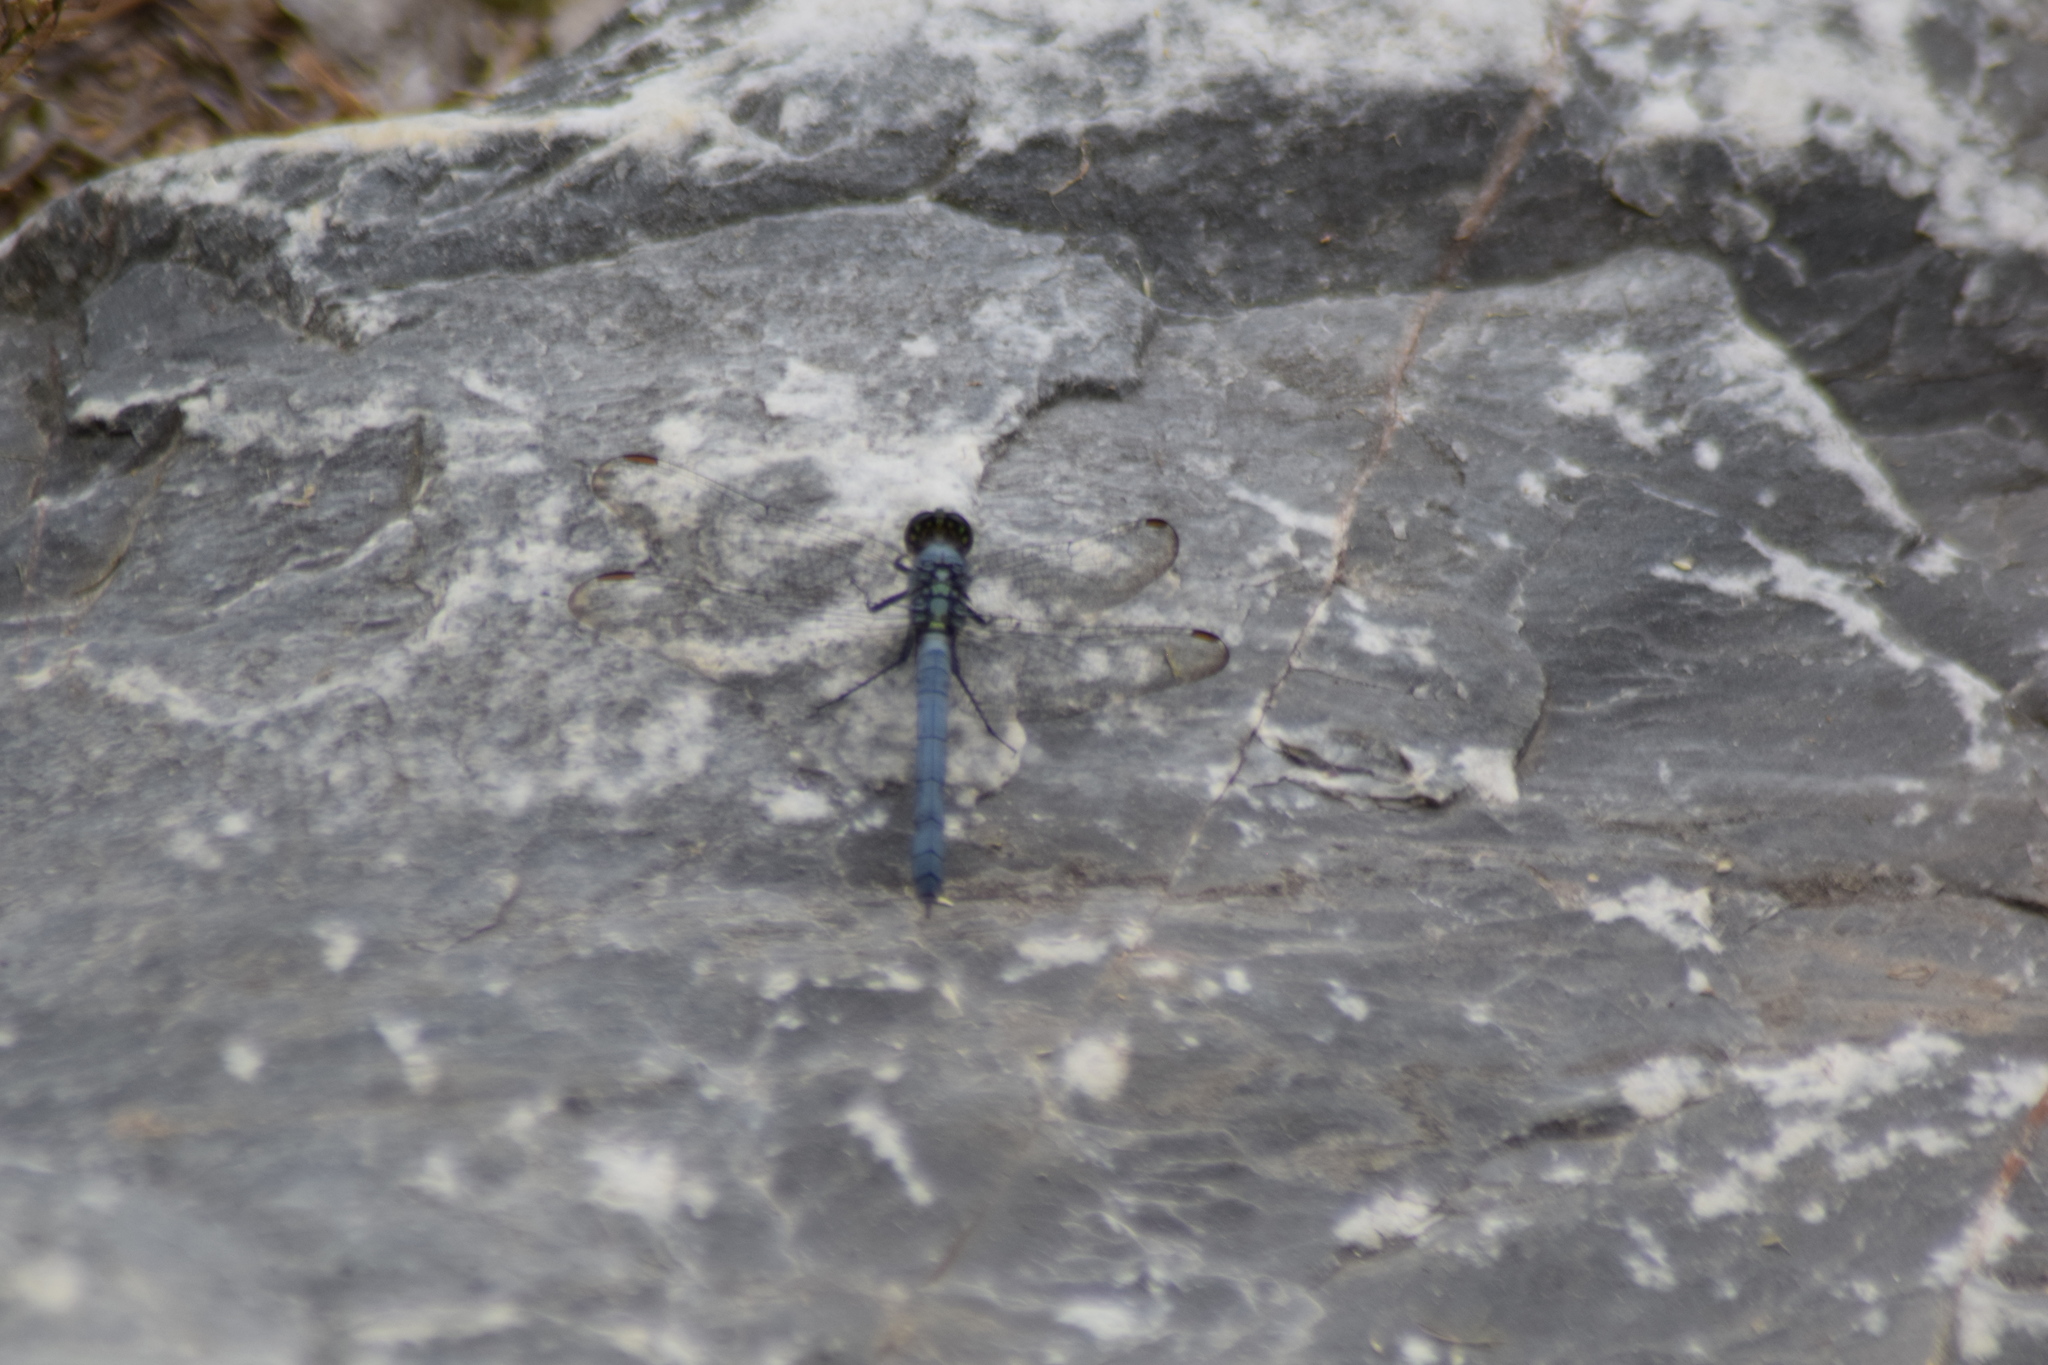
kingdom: Animalia
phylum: Arthropoda
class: Insecta
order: Odonata
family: Libellulidae
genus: Erythemis
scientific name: Erythemis simplicicollis
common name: Eastern pondhawk
